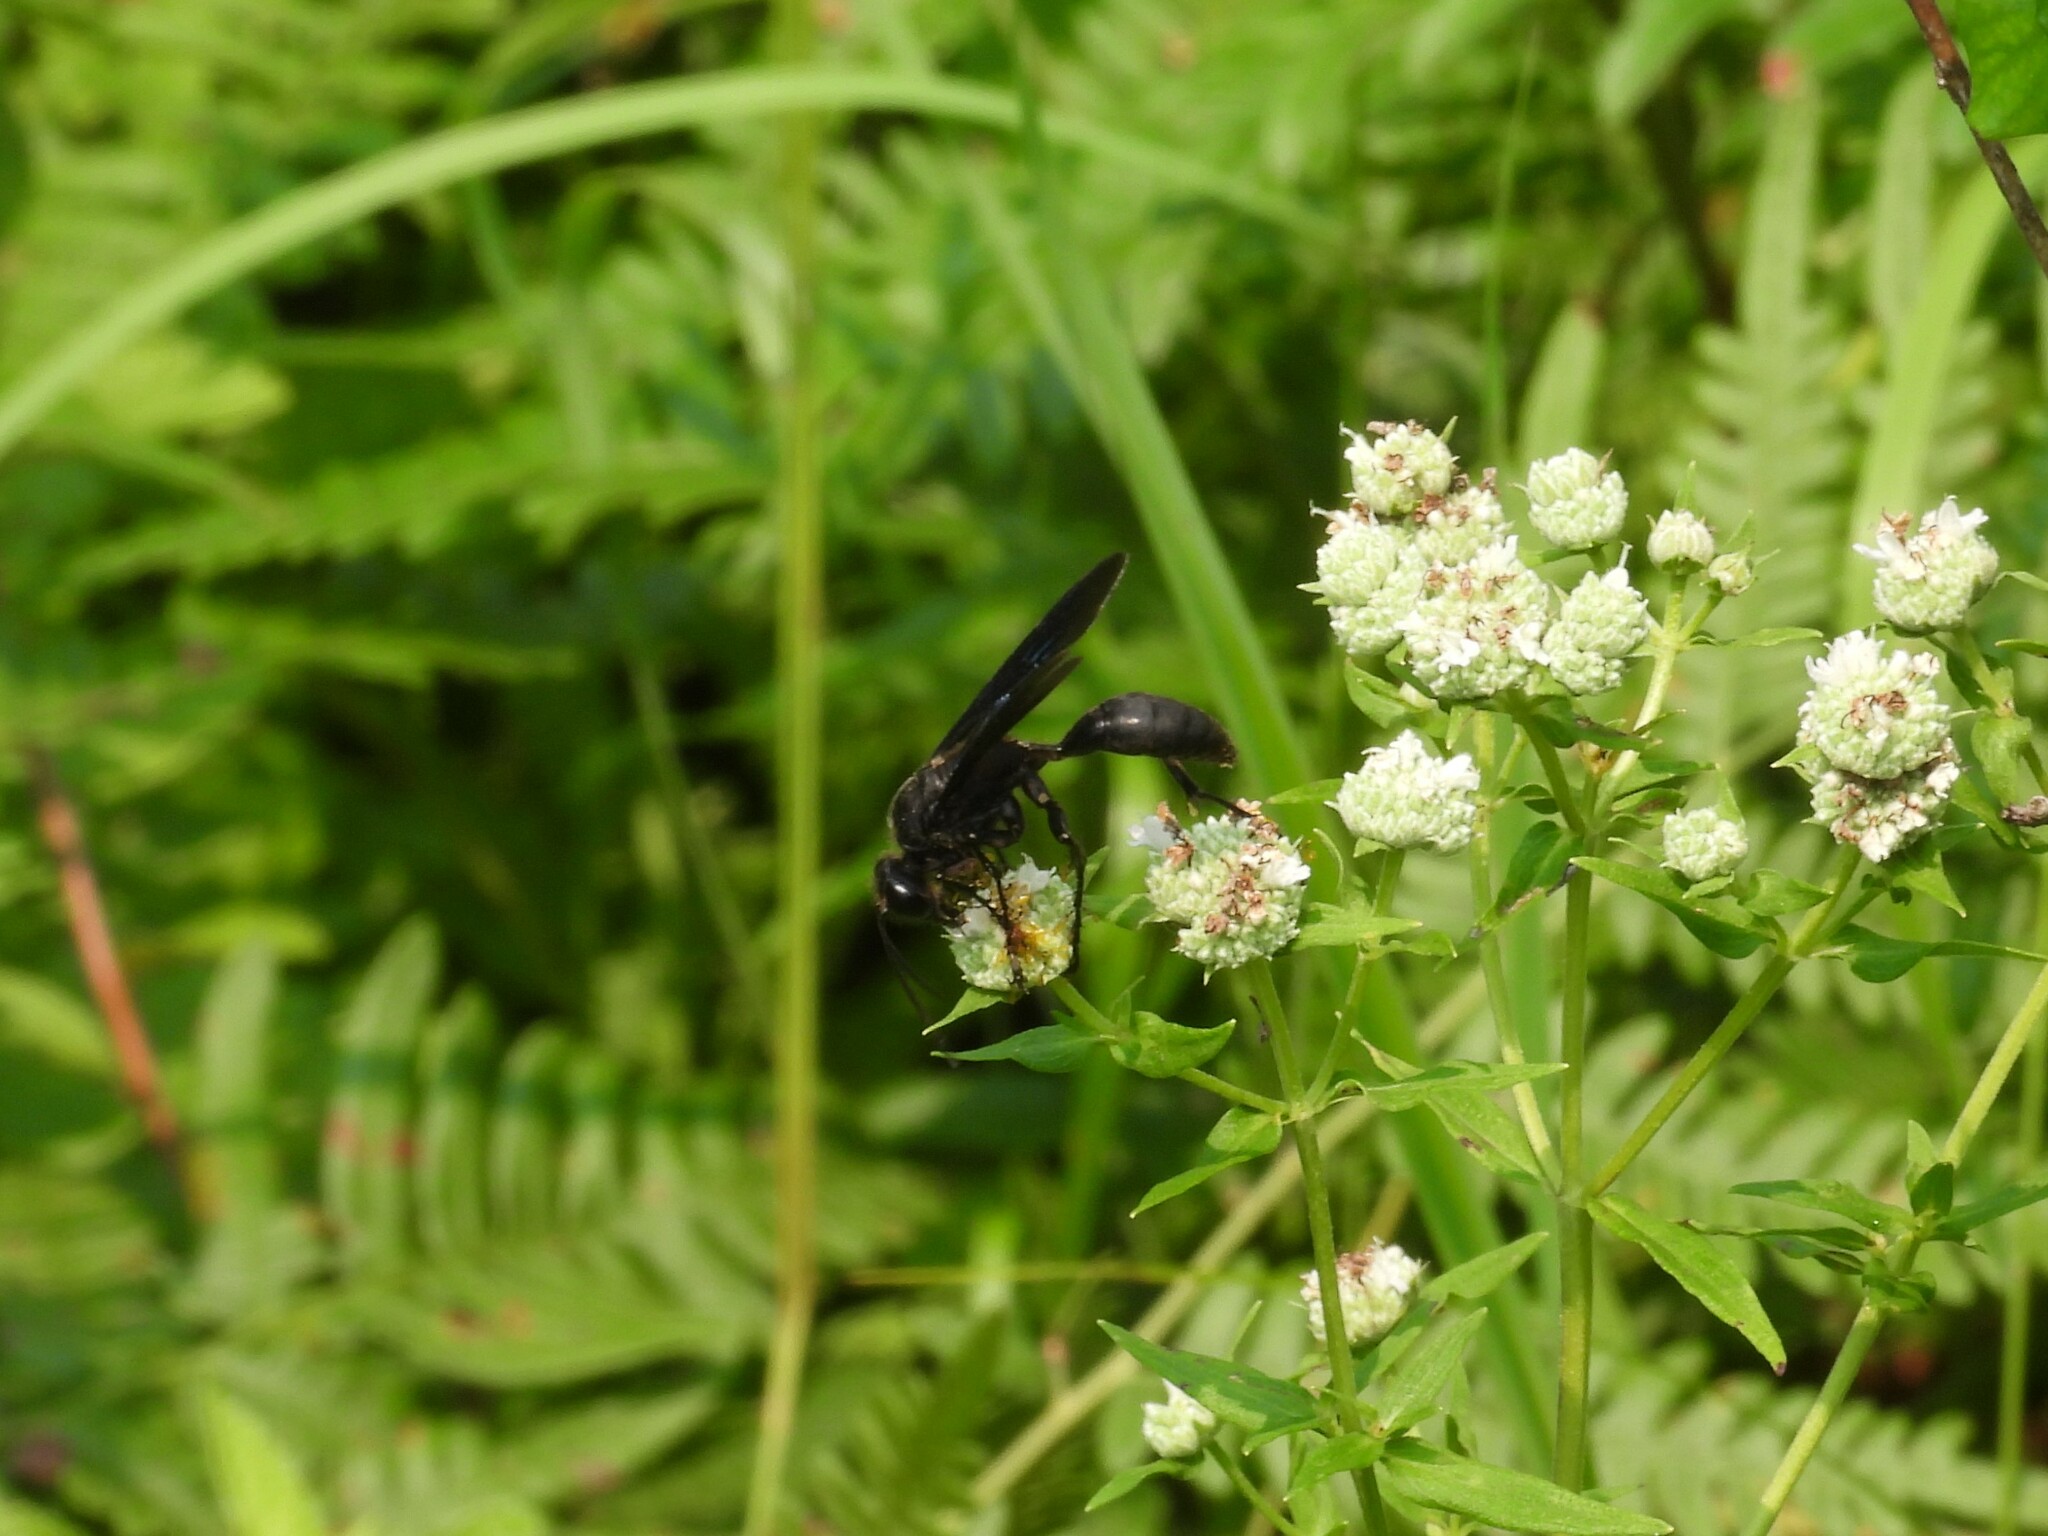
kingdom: Animalia
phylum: Arthropoda
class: Insecta
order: Hymenoptera
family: Sphecidae
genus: Sphex
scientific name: Sphex pensylvanicus
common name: Great black digger wasp
